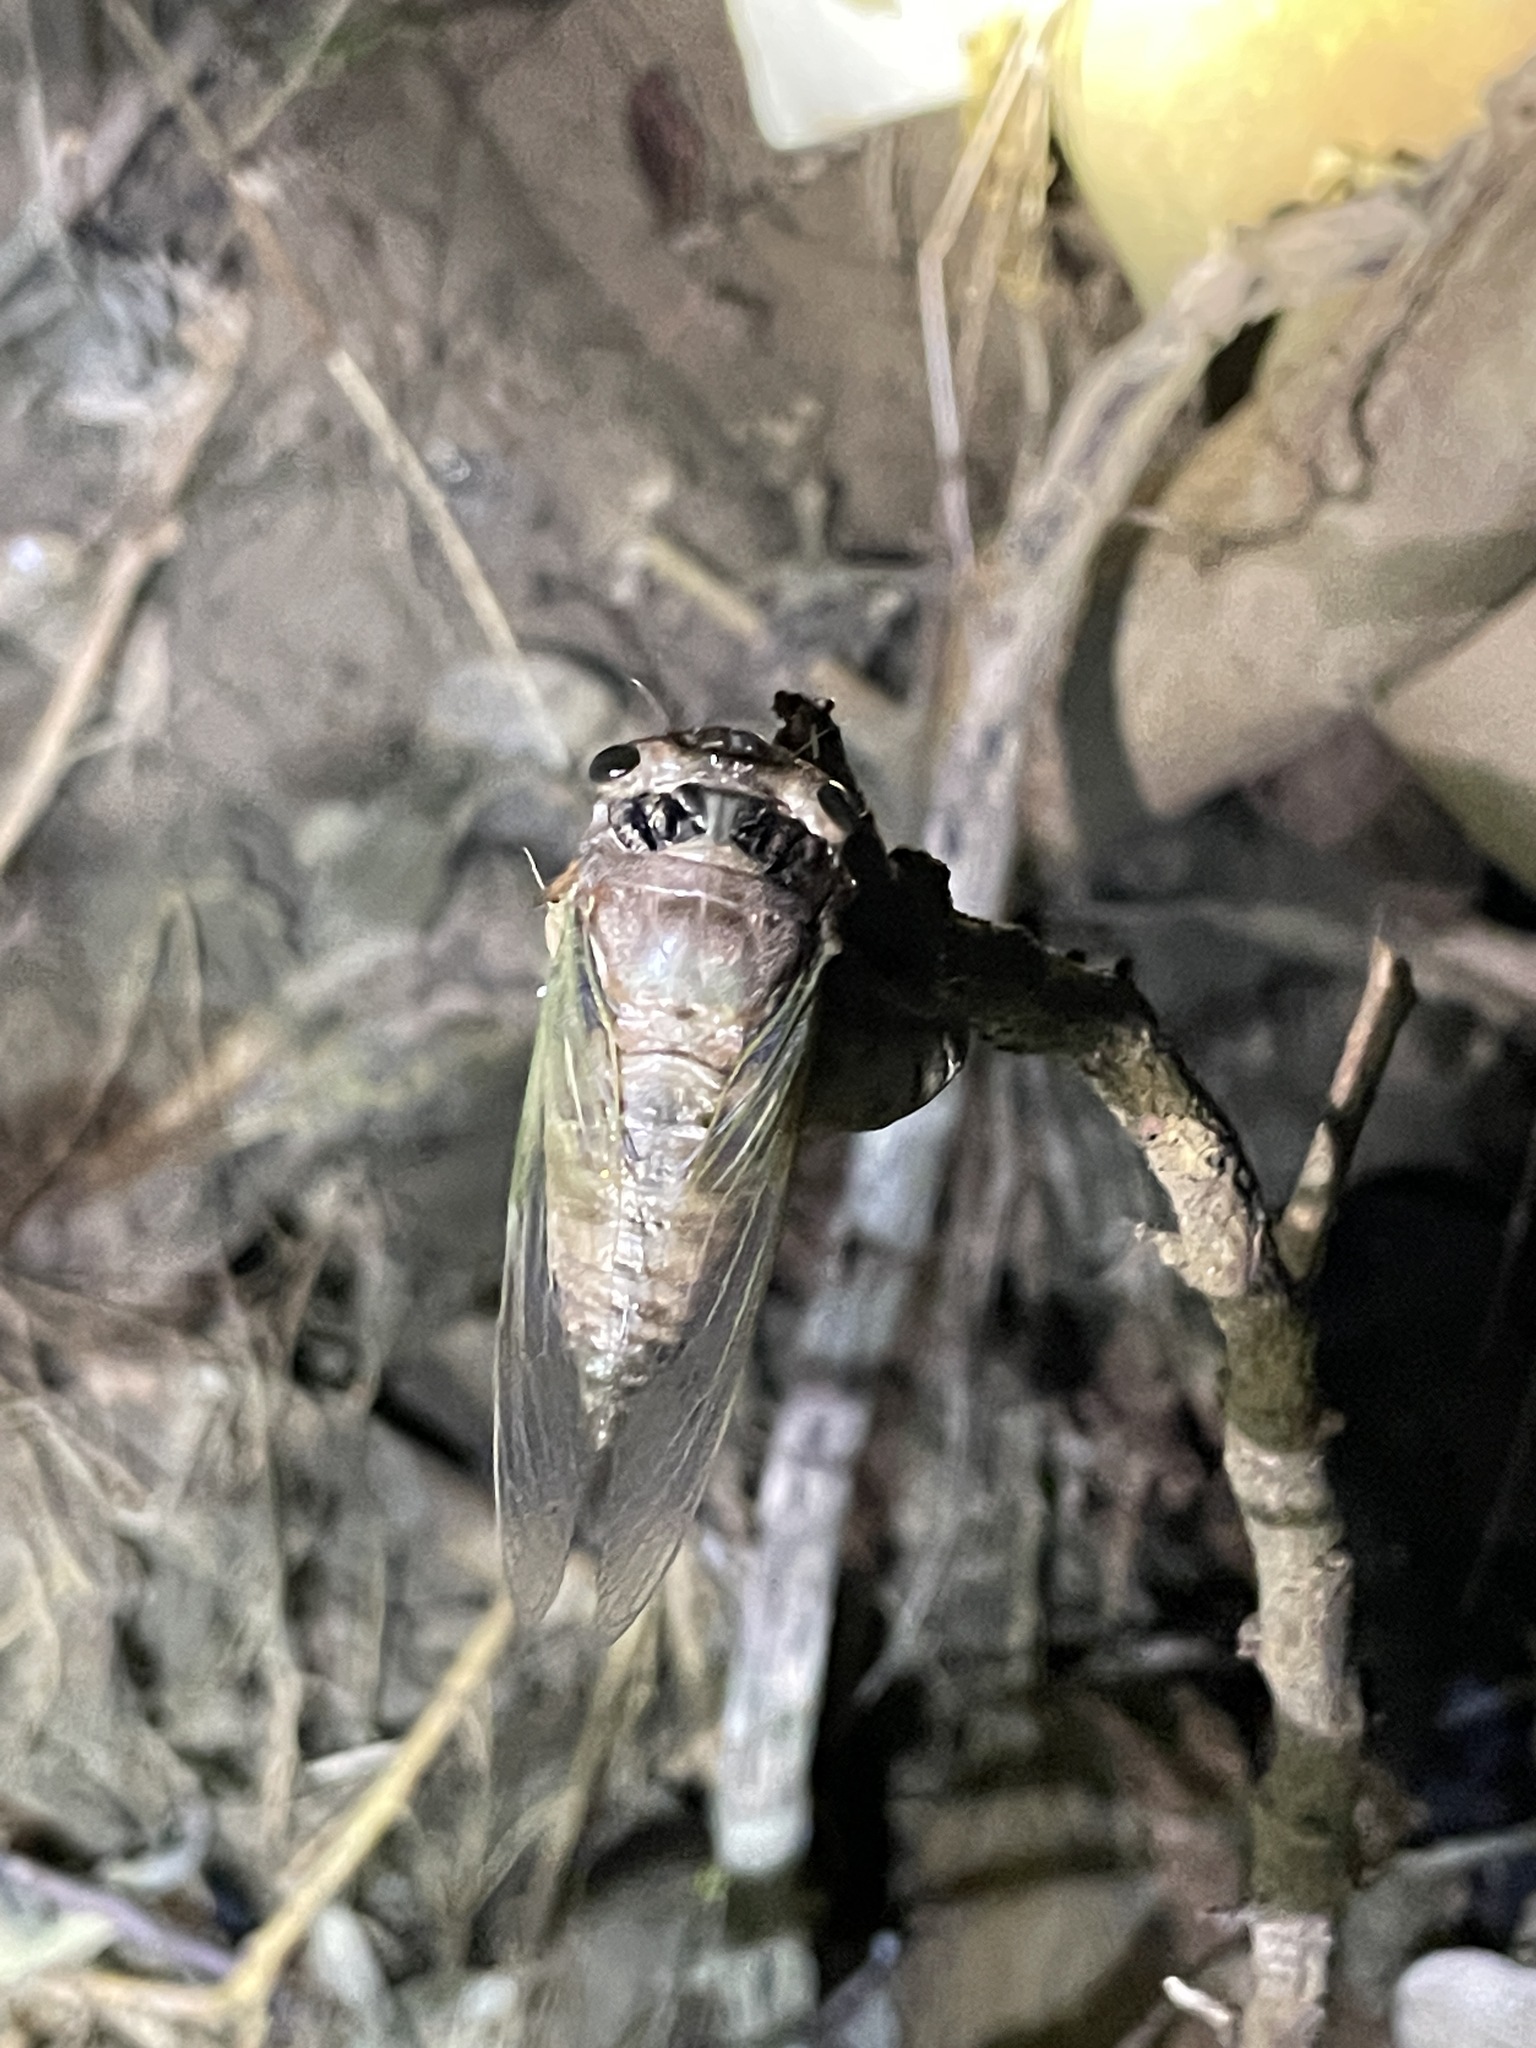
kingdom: Animalia
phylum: Arthropoda
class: Insecta
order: Hemiptera
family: Cicadidae
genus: Cryptotympana
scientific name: Cryptotympana takasagona
